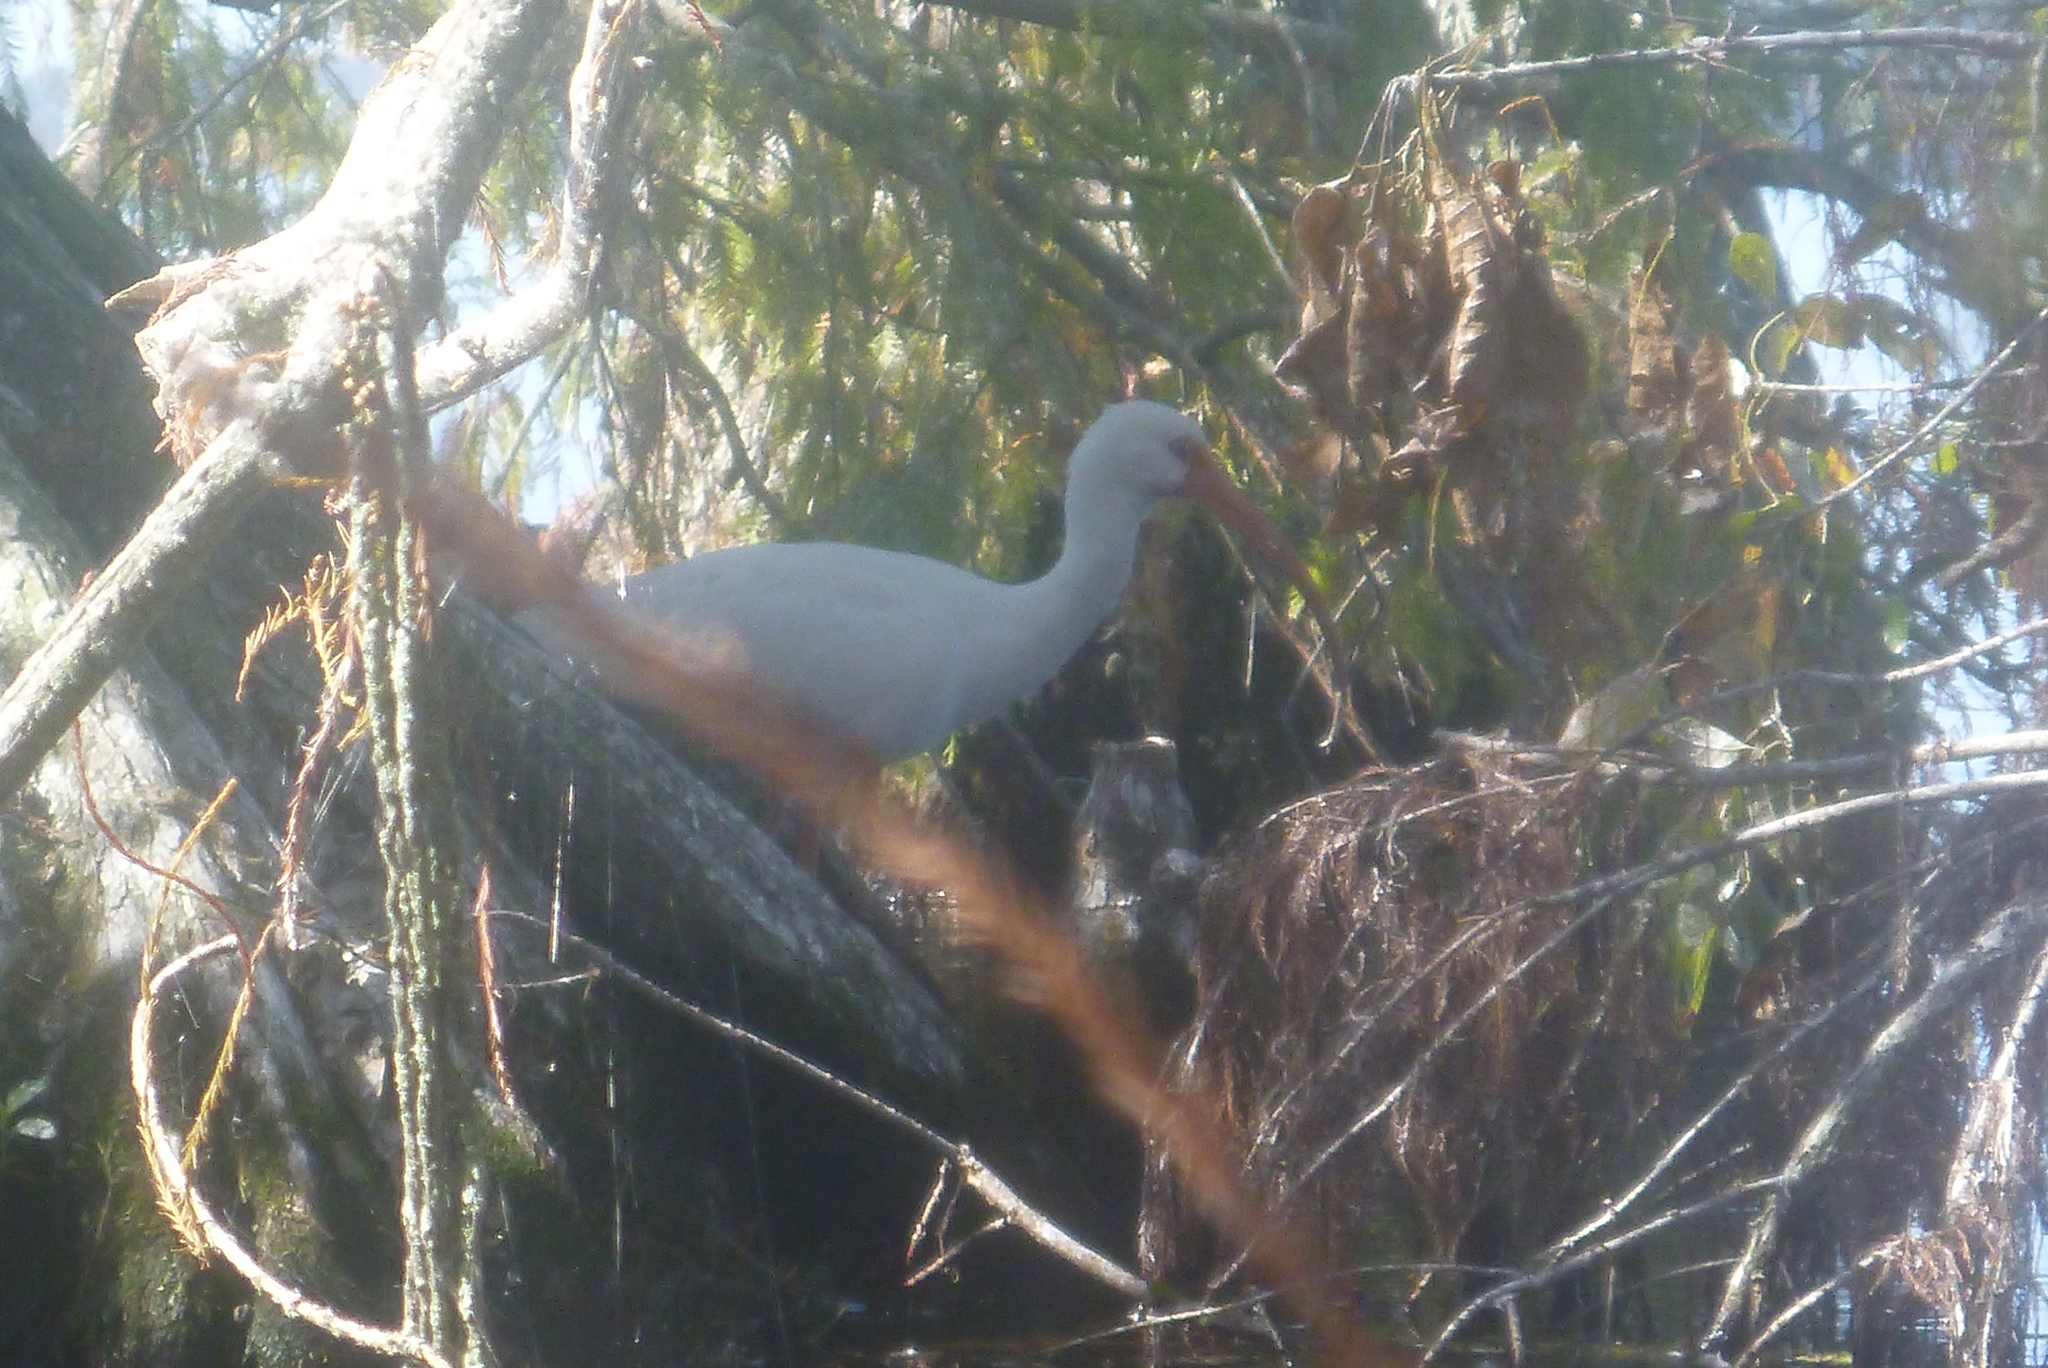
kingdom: Animalia
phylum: Chordata
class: Aves
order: Pelecaniformes
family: Threskiornithidae
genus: Eudocimus
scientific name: Eudocimus albus
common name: White ibis
